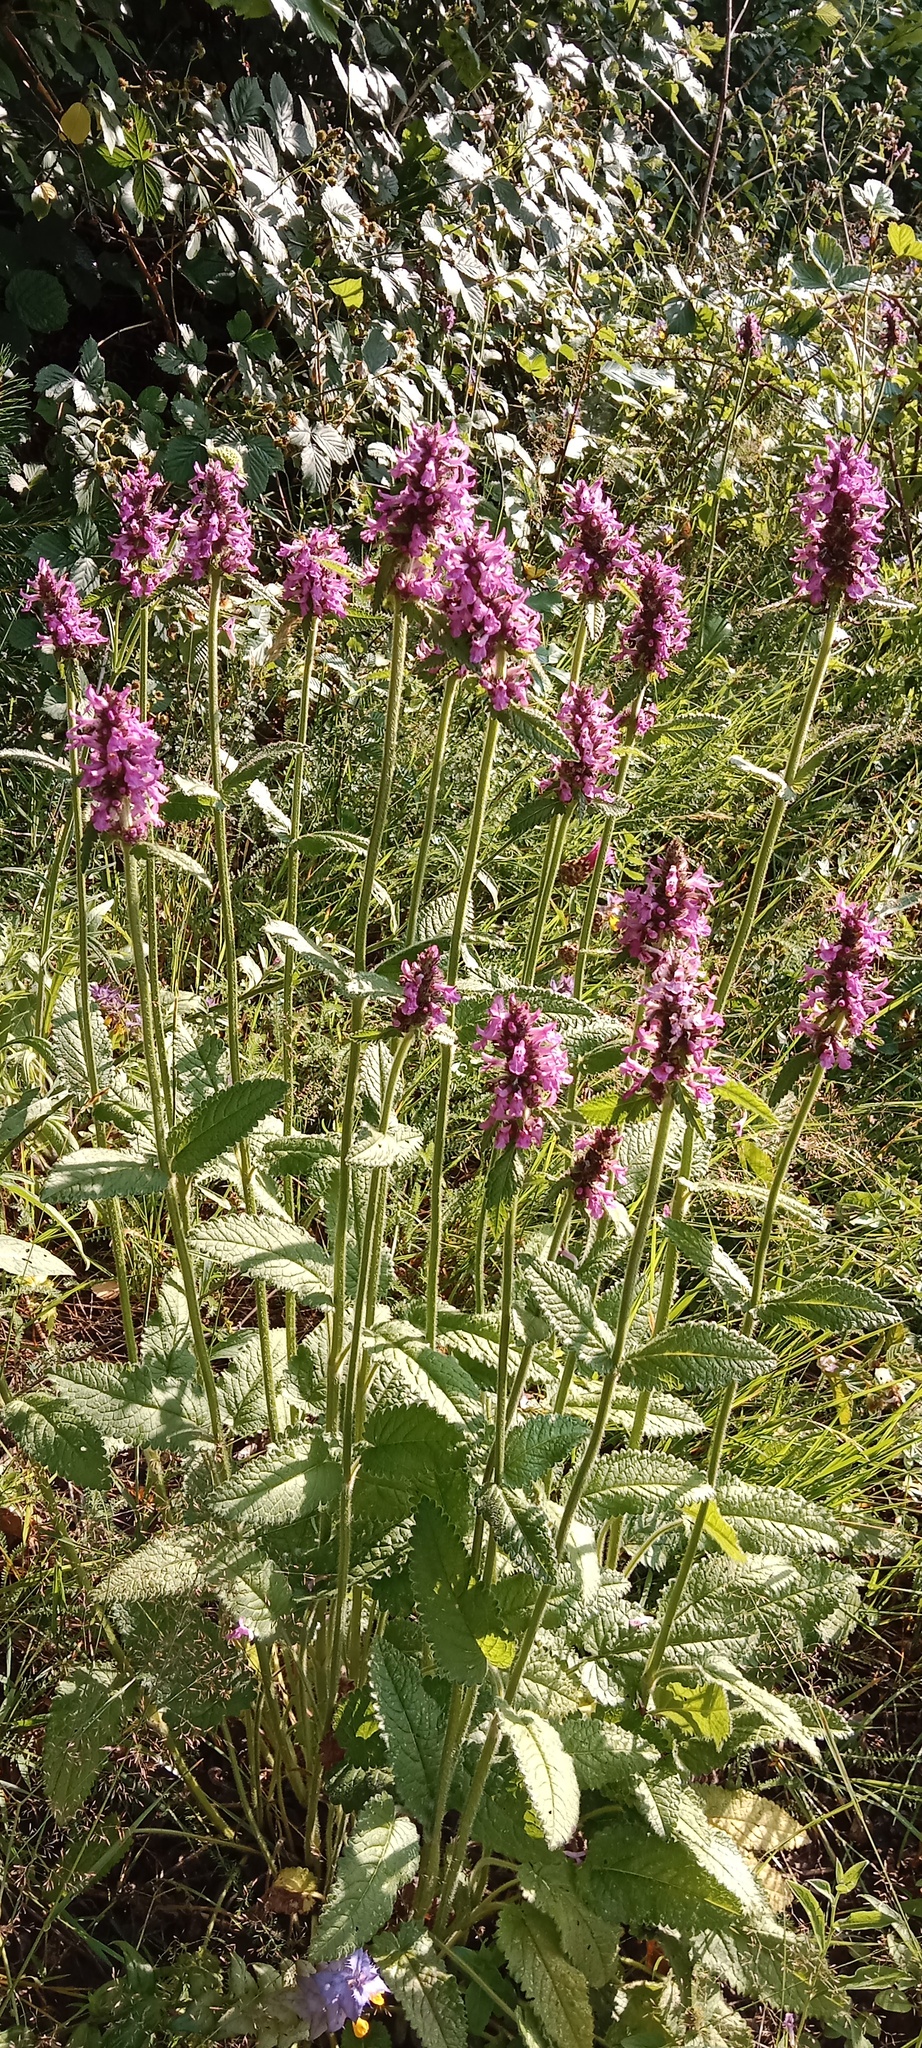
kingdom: Plantae
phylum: Tracheophyta
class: Magnoliopsida
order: Lamiales
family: Lamiaceae
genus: Betonica
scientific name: Betonica officinalis
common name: Bishop's-wort
